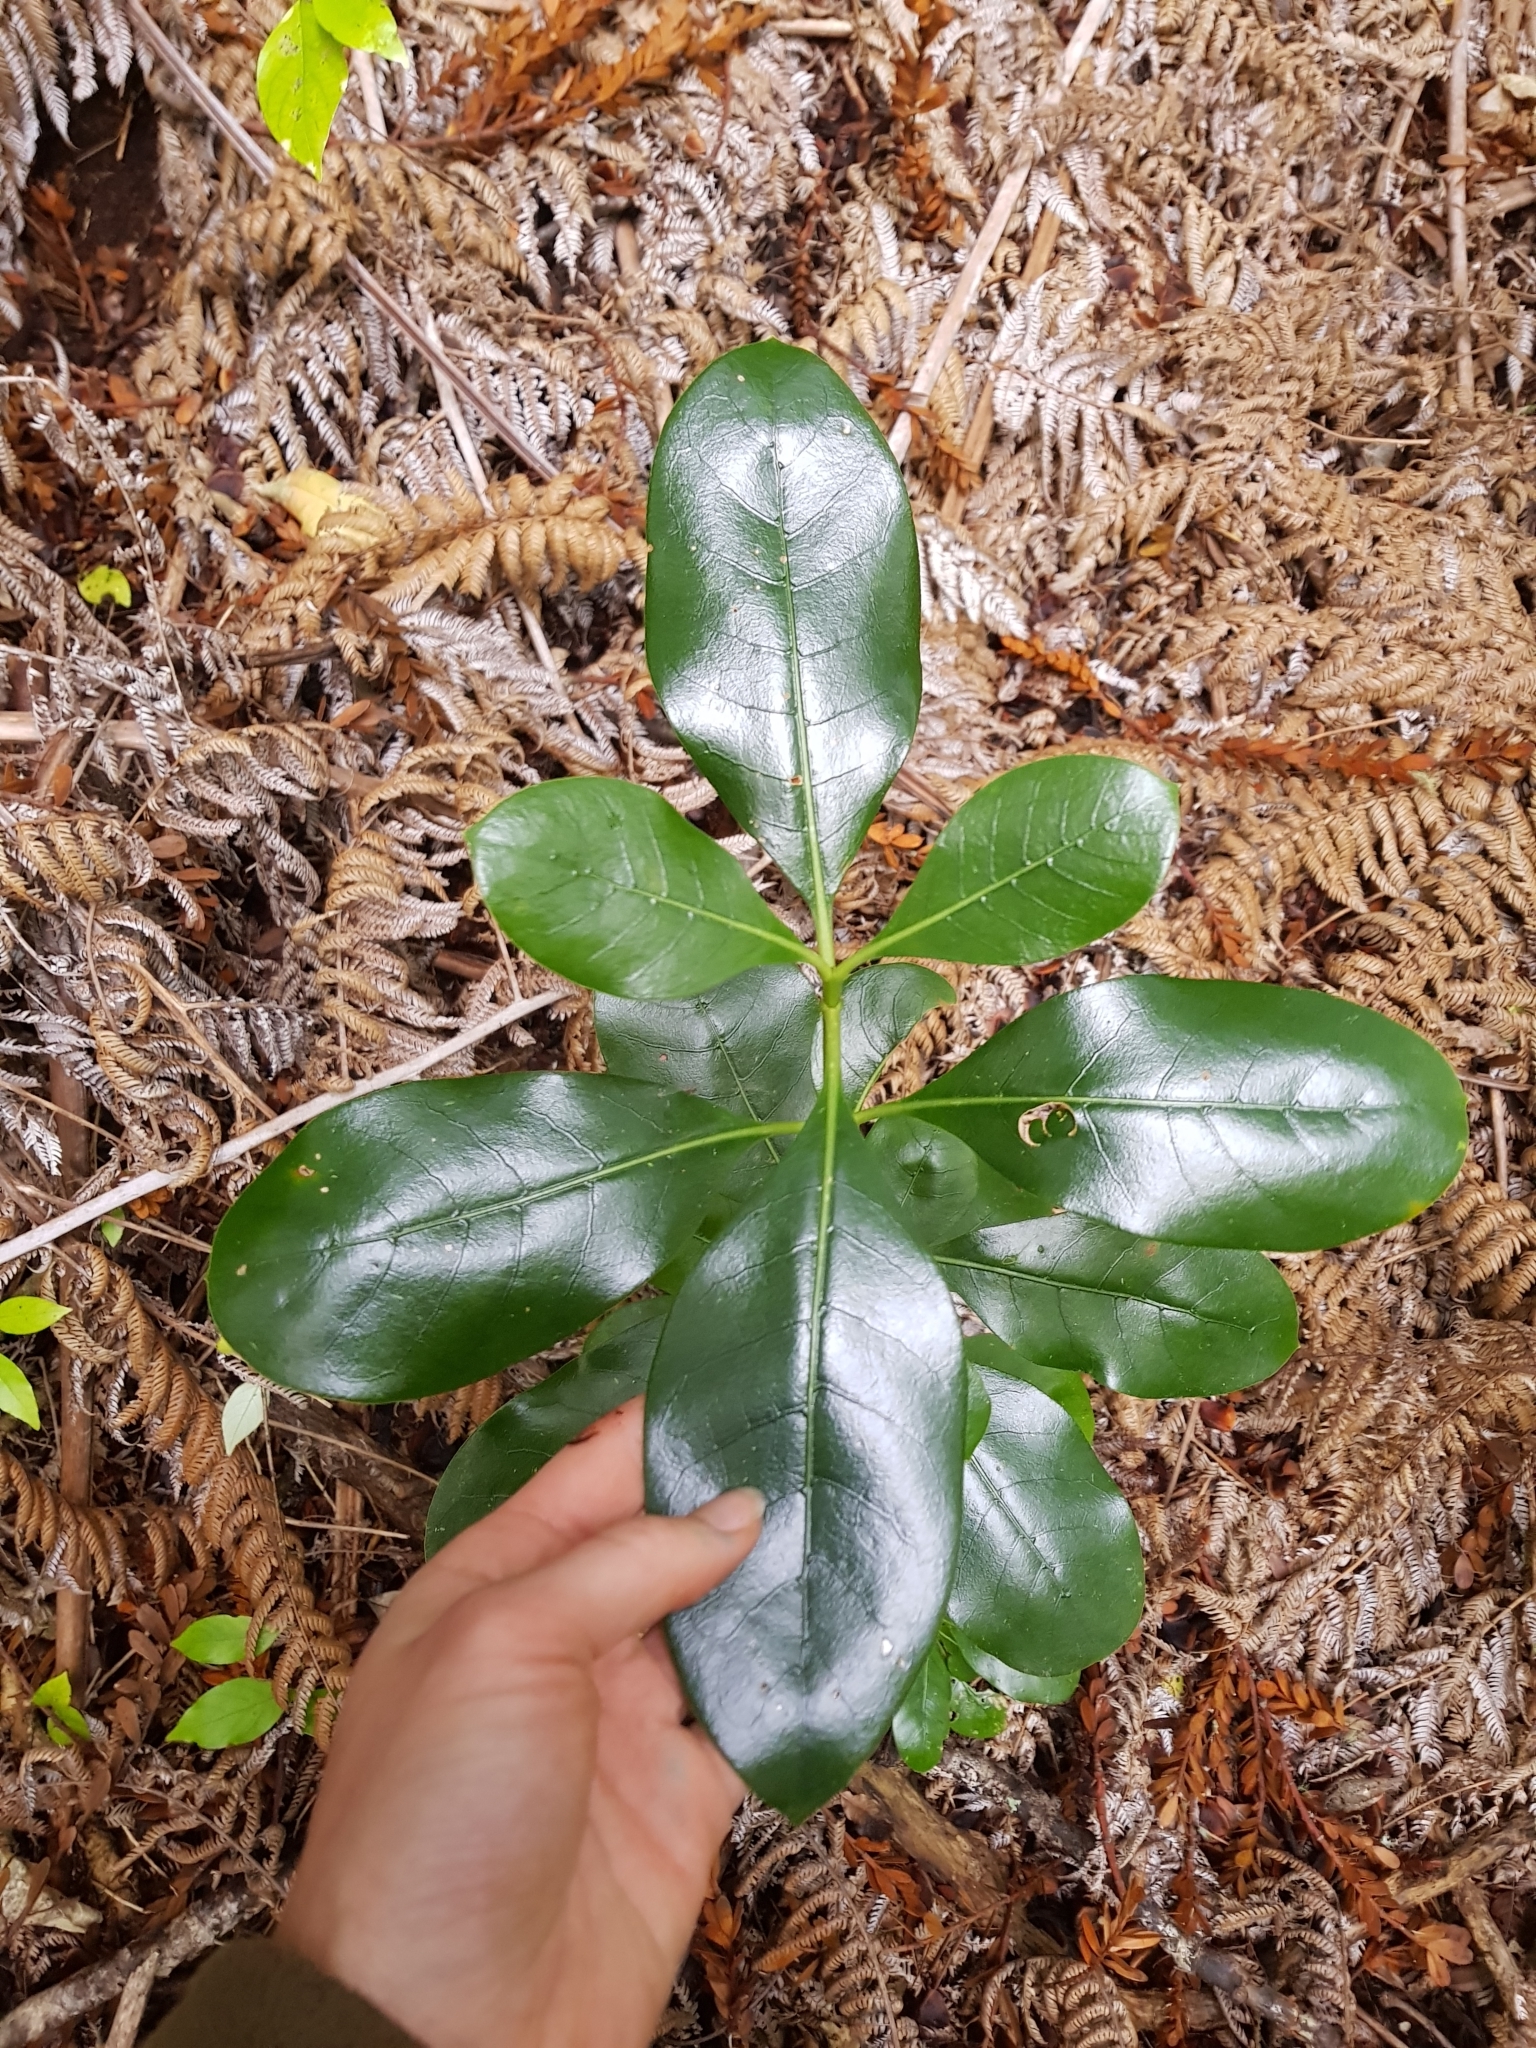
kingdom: Plantae
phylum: Tracheophyta
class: Magnoliopsida
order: Gentianales
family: Rubiaceae
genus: Coprosma
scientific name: Coprosma repens
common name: Tree bedstraw
